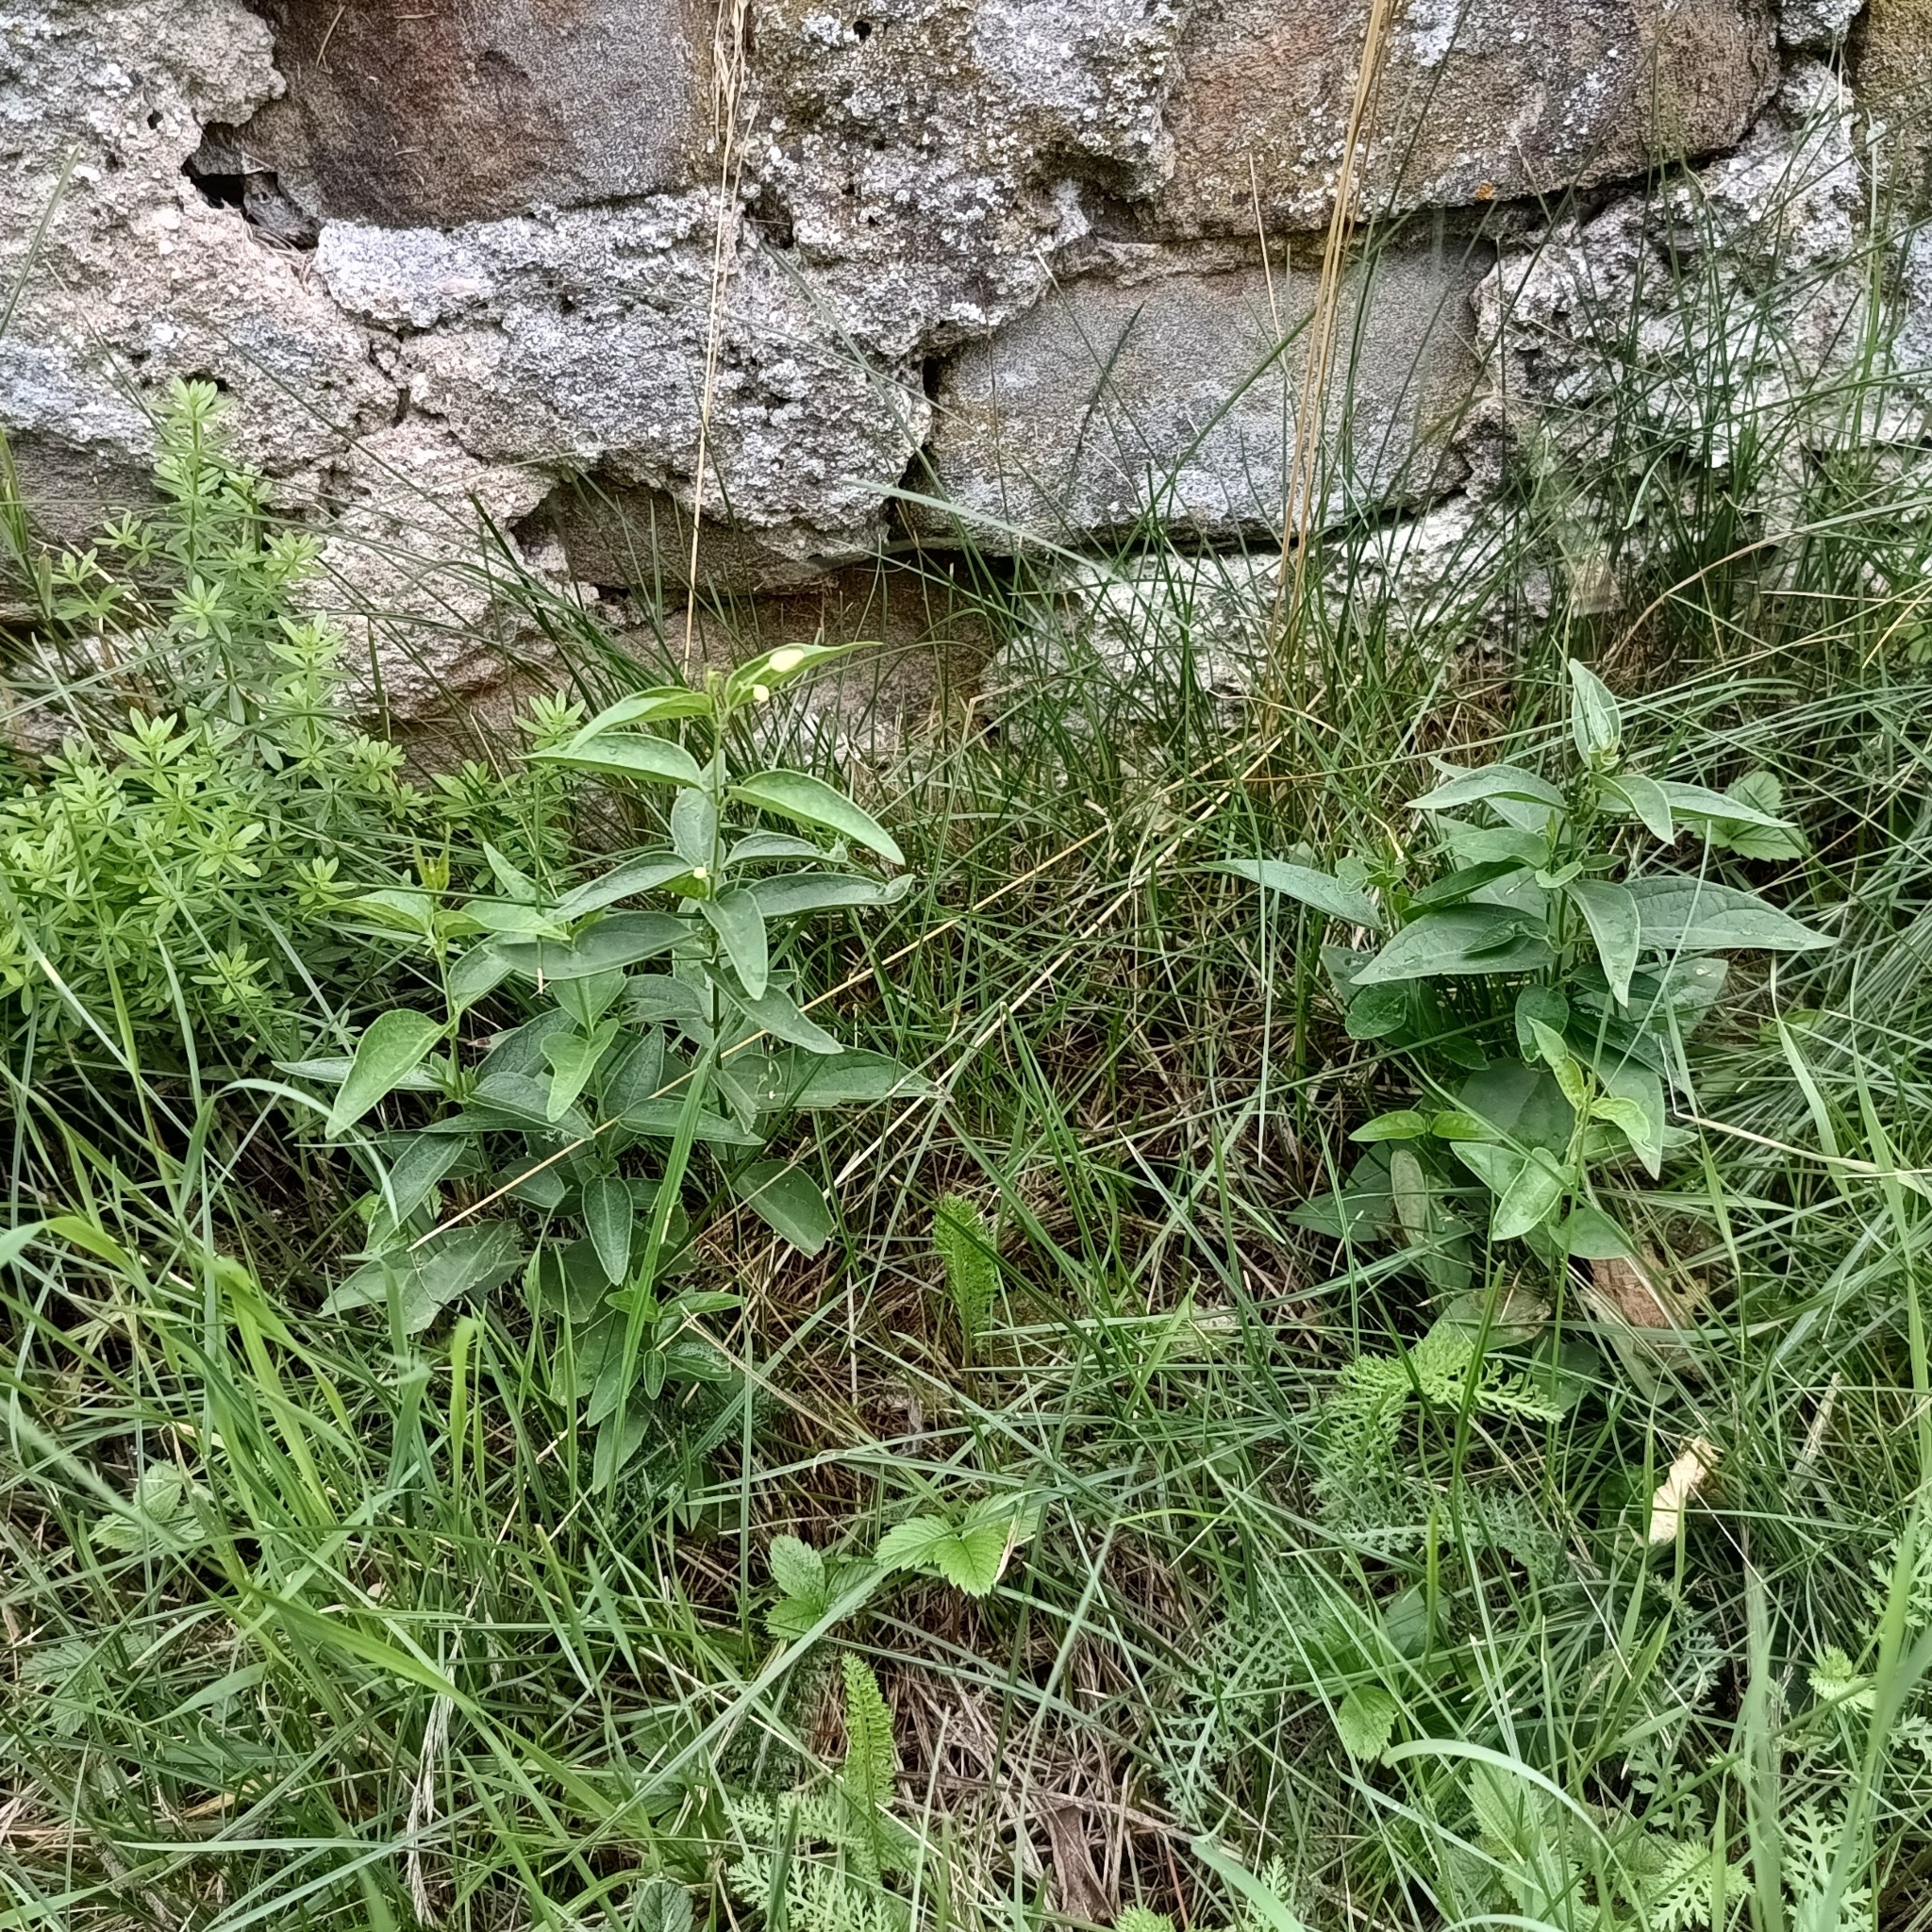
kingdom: Plantae
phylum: Tracheophyta
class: Magnoliopsida
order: Gentianales
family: Apocynaceae
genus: Vincetoxicum
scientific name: Vincetoxicum hirundinaria
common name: White swallowwort
